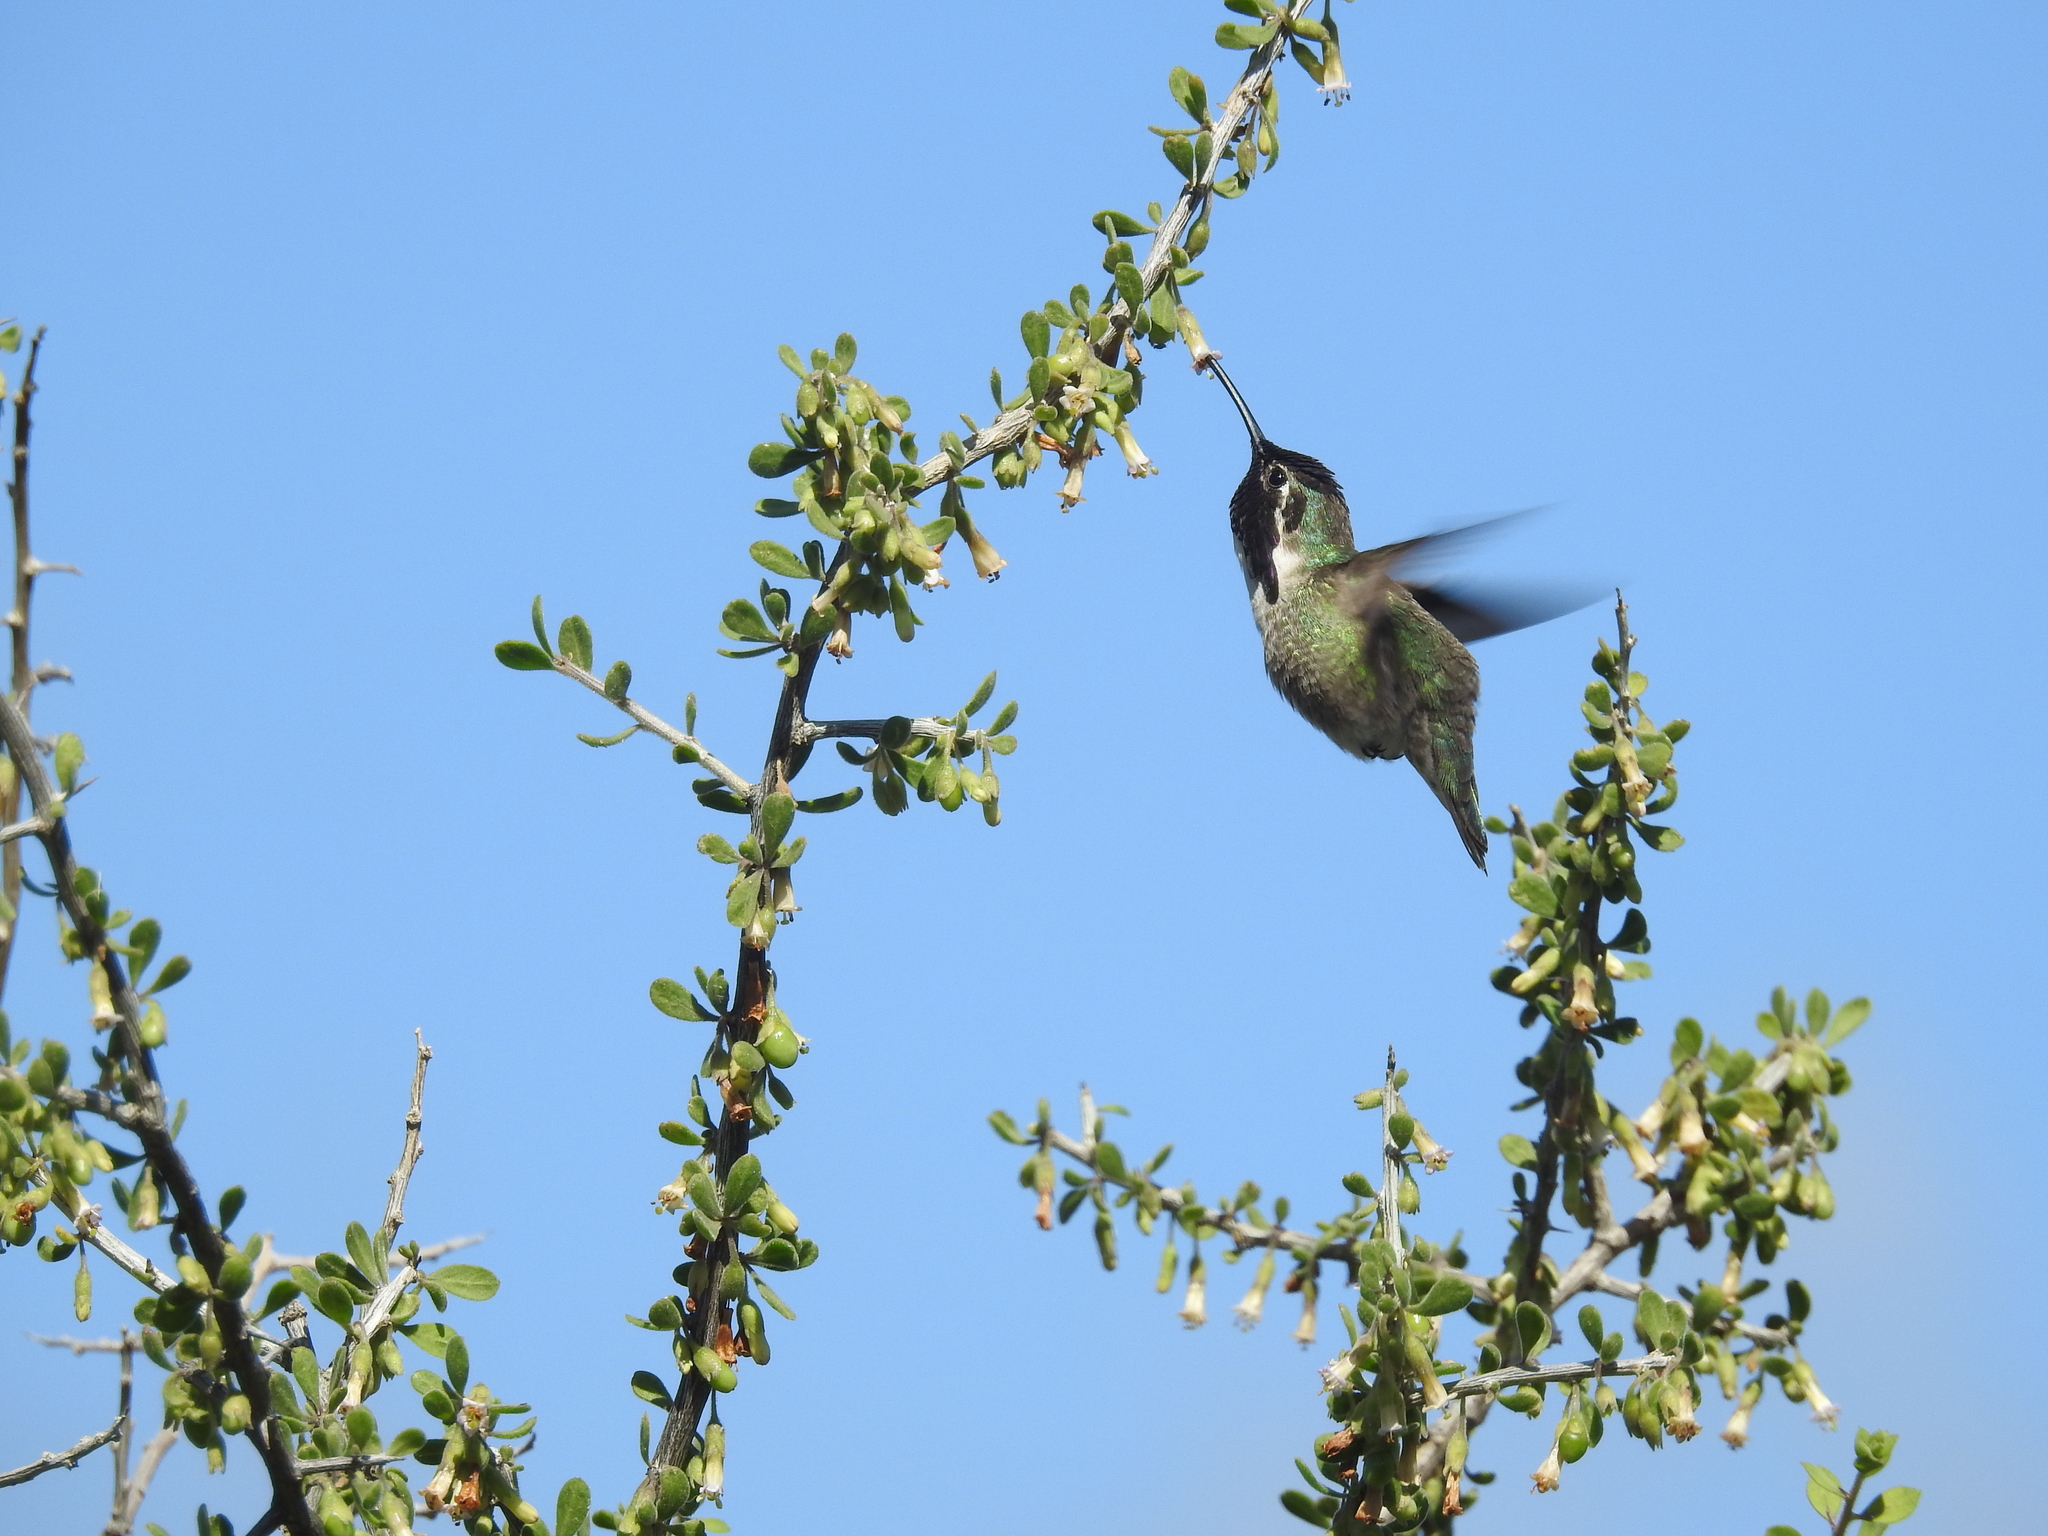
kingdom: Animalia
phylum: Chordata
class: Aves
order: Apodiformes
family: Trochilidae
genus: Calypte
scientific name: Calypte costae
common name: Costa's hummingbird
